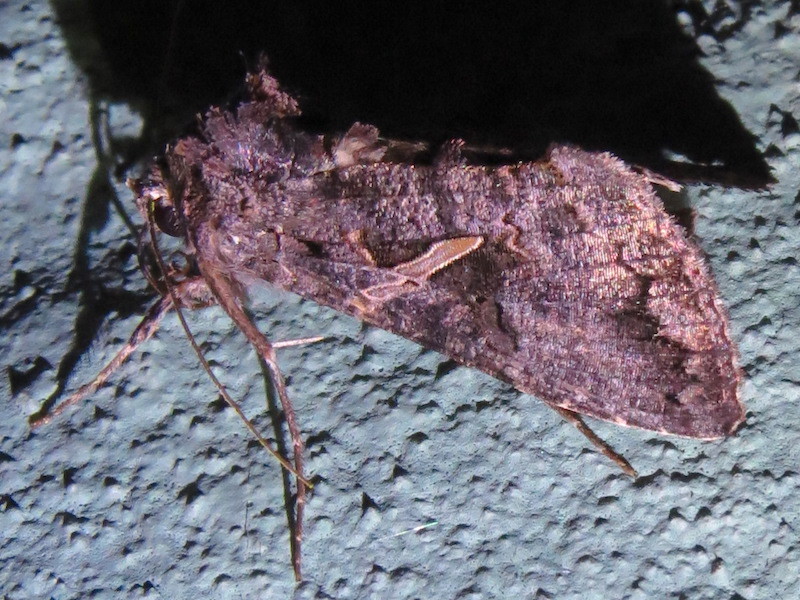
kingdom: Animalia
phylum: Arthropoda
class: Insecta
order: Lepidoptera
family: Noctuidae
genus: Ctenoplusia
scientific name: Ctenoplusia oxygramma
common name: Sharp-stigma looper moth
